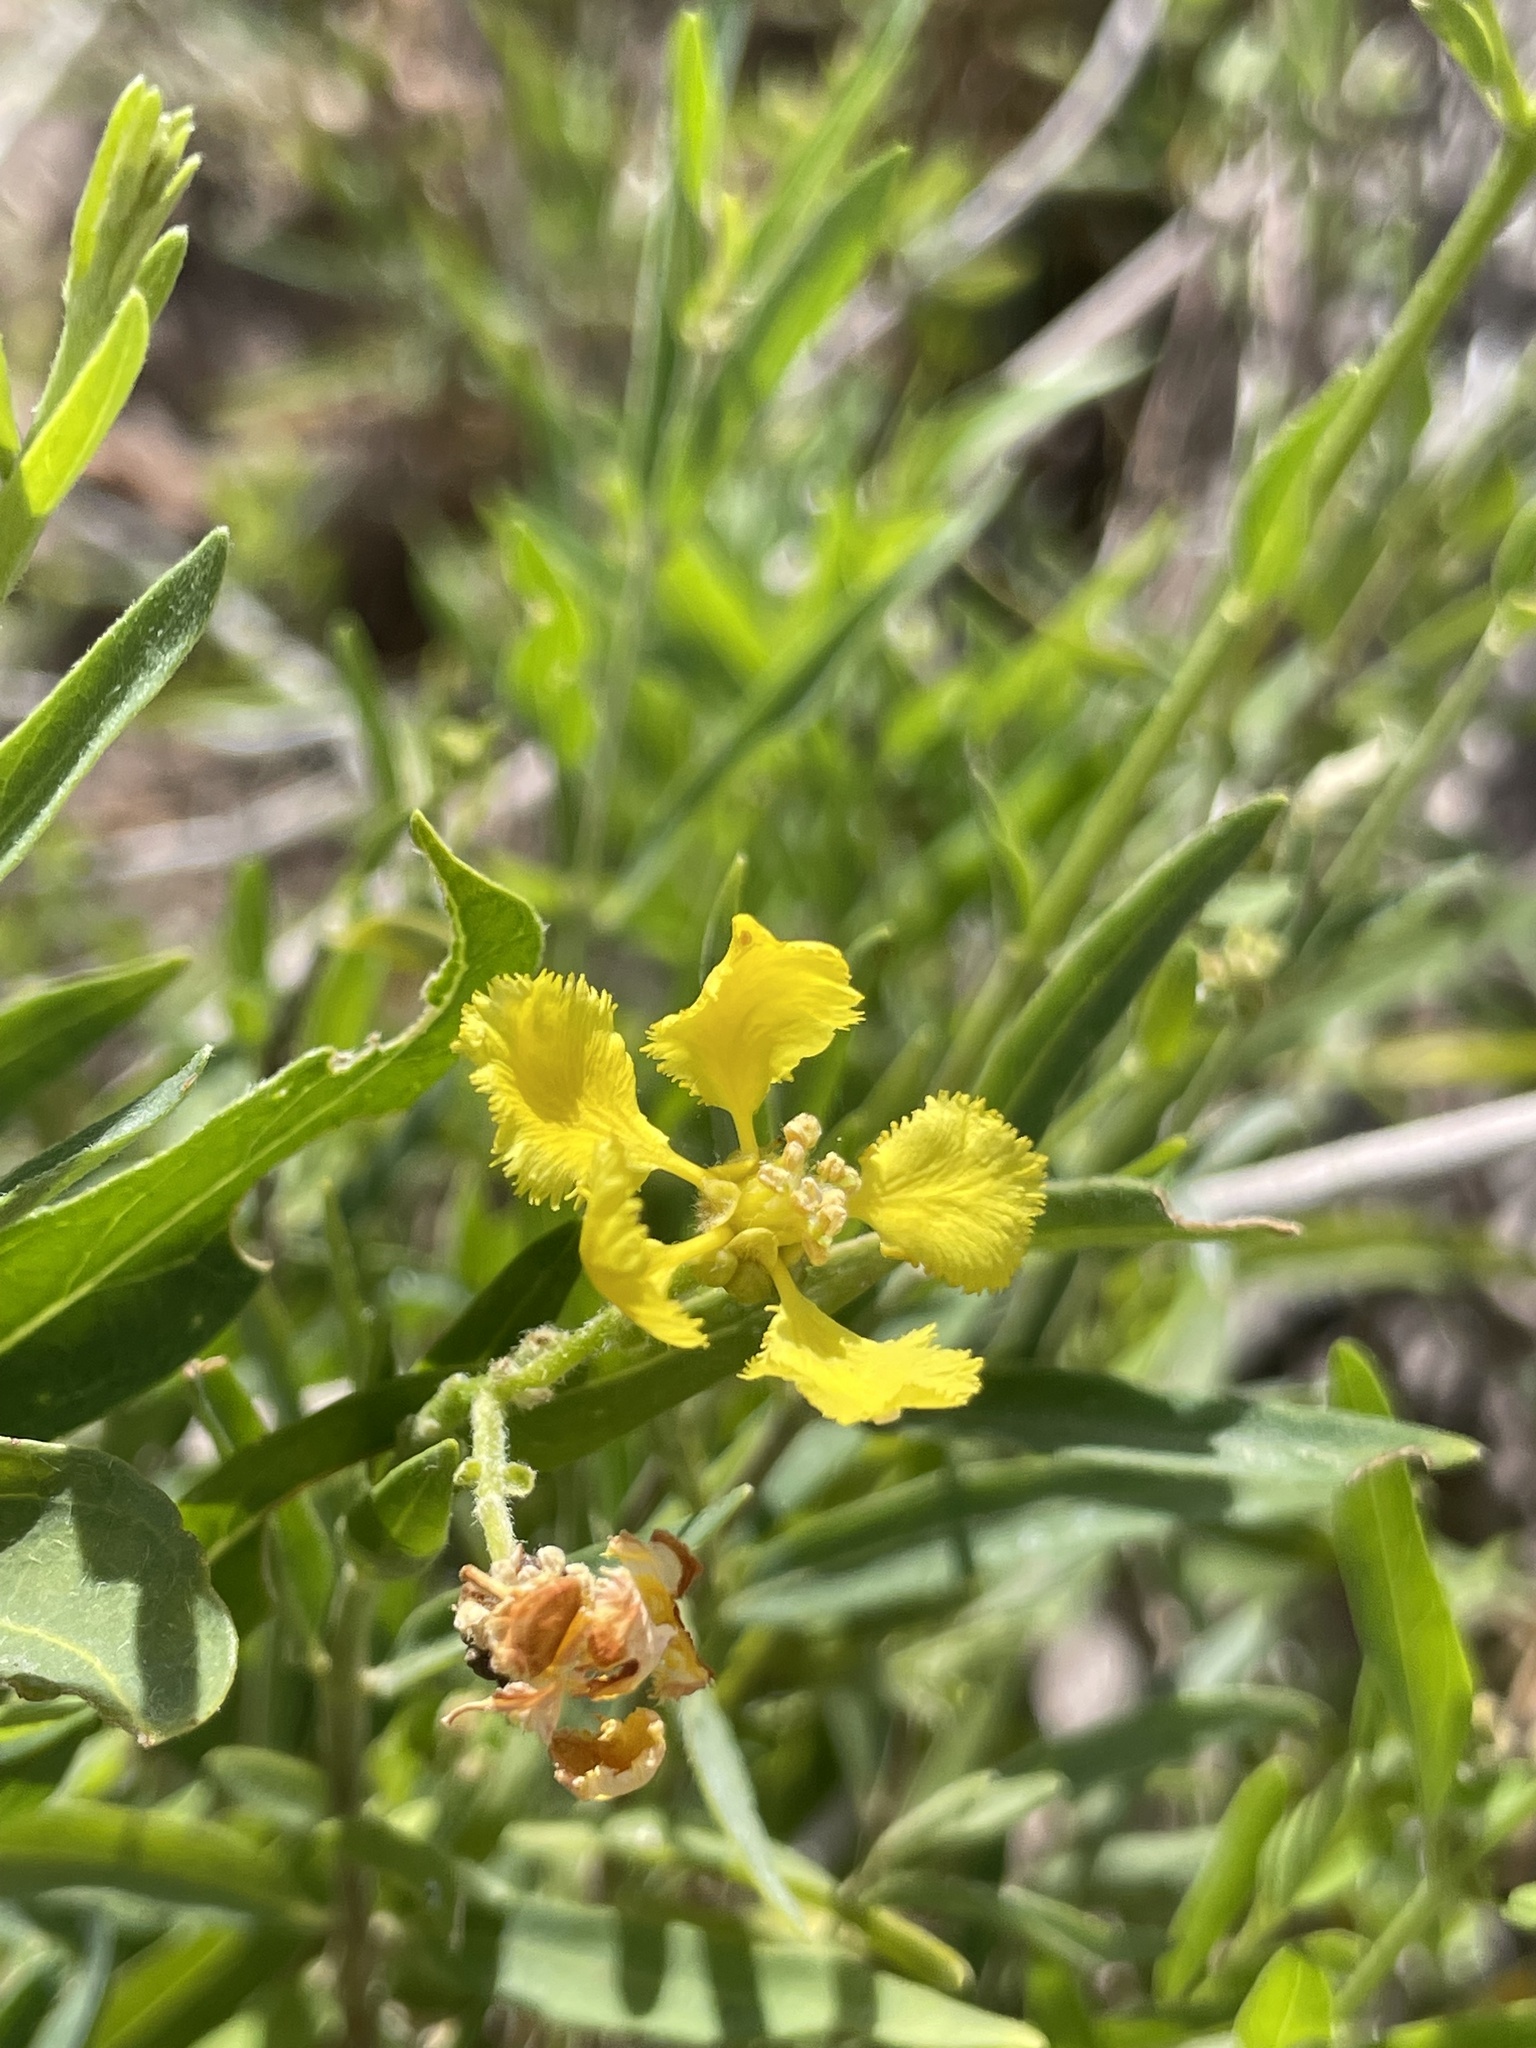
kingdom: Plantae
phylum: Tracheophyta
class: Magnoliopsida
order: Malpighiales
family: Malpighiaceae
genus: Callaeum
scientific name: Callaeum macropterum
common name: Mexican butterfly-vine
